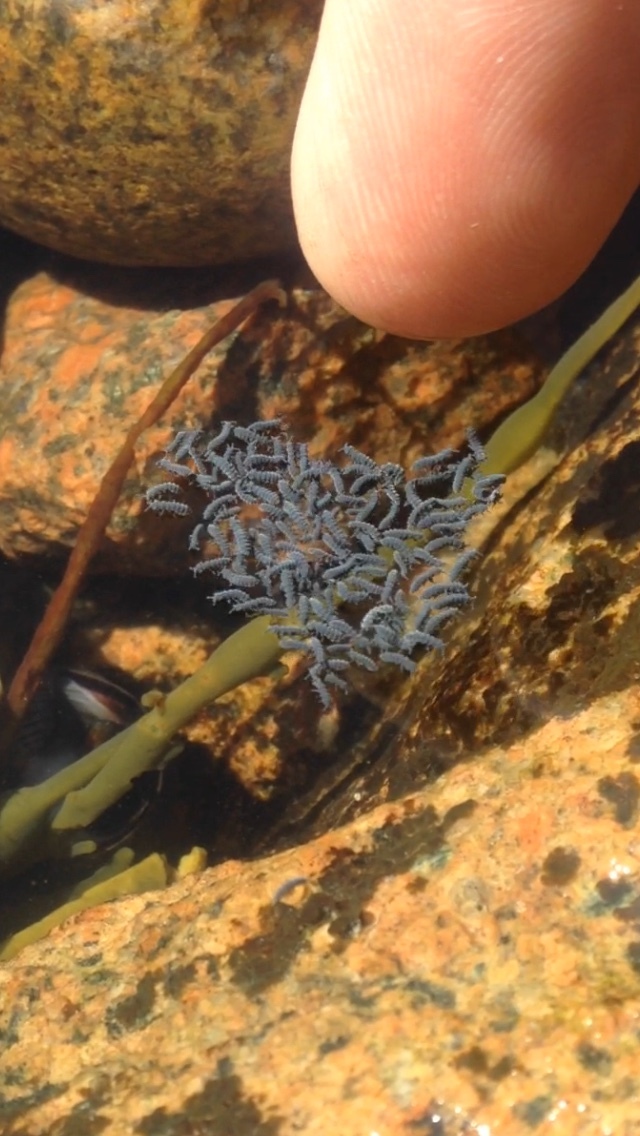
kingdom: Animalia
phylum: Arthropoda
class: Collembola
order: Poduromorpha
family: Neanuridae
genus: Anurida
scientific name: Anurida maritima
